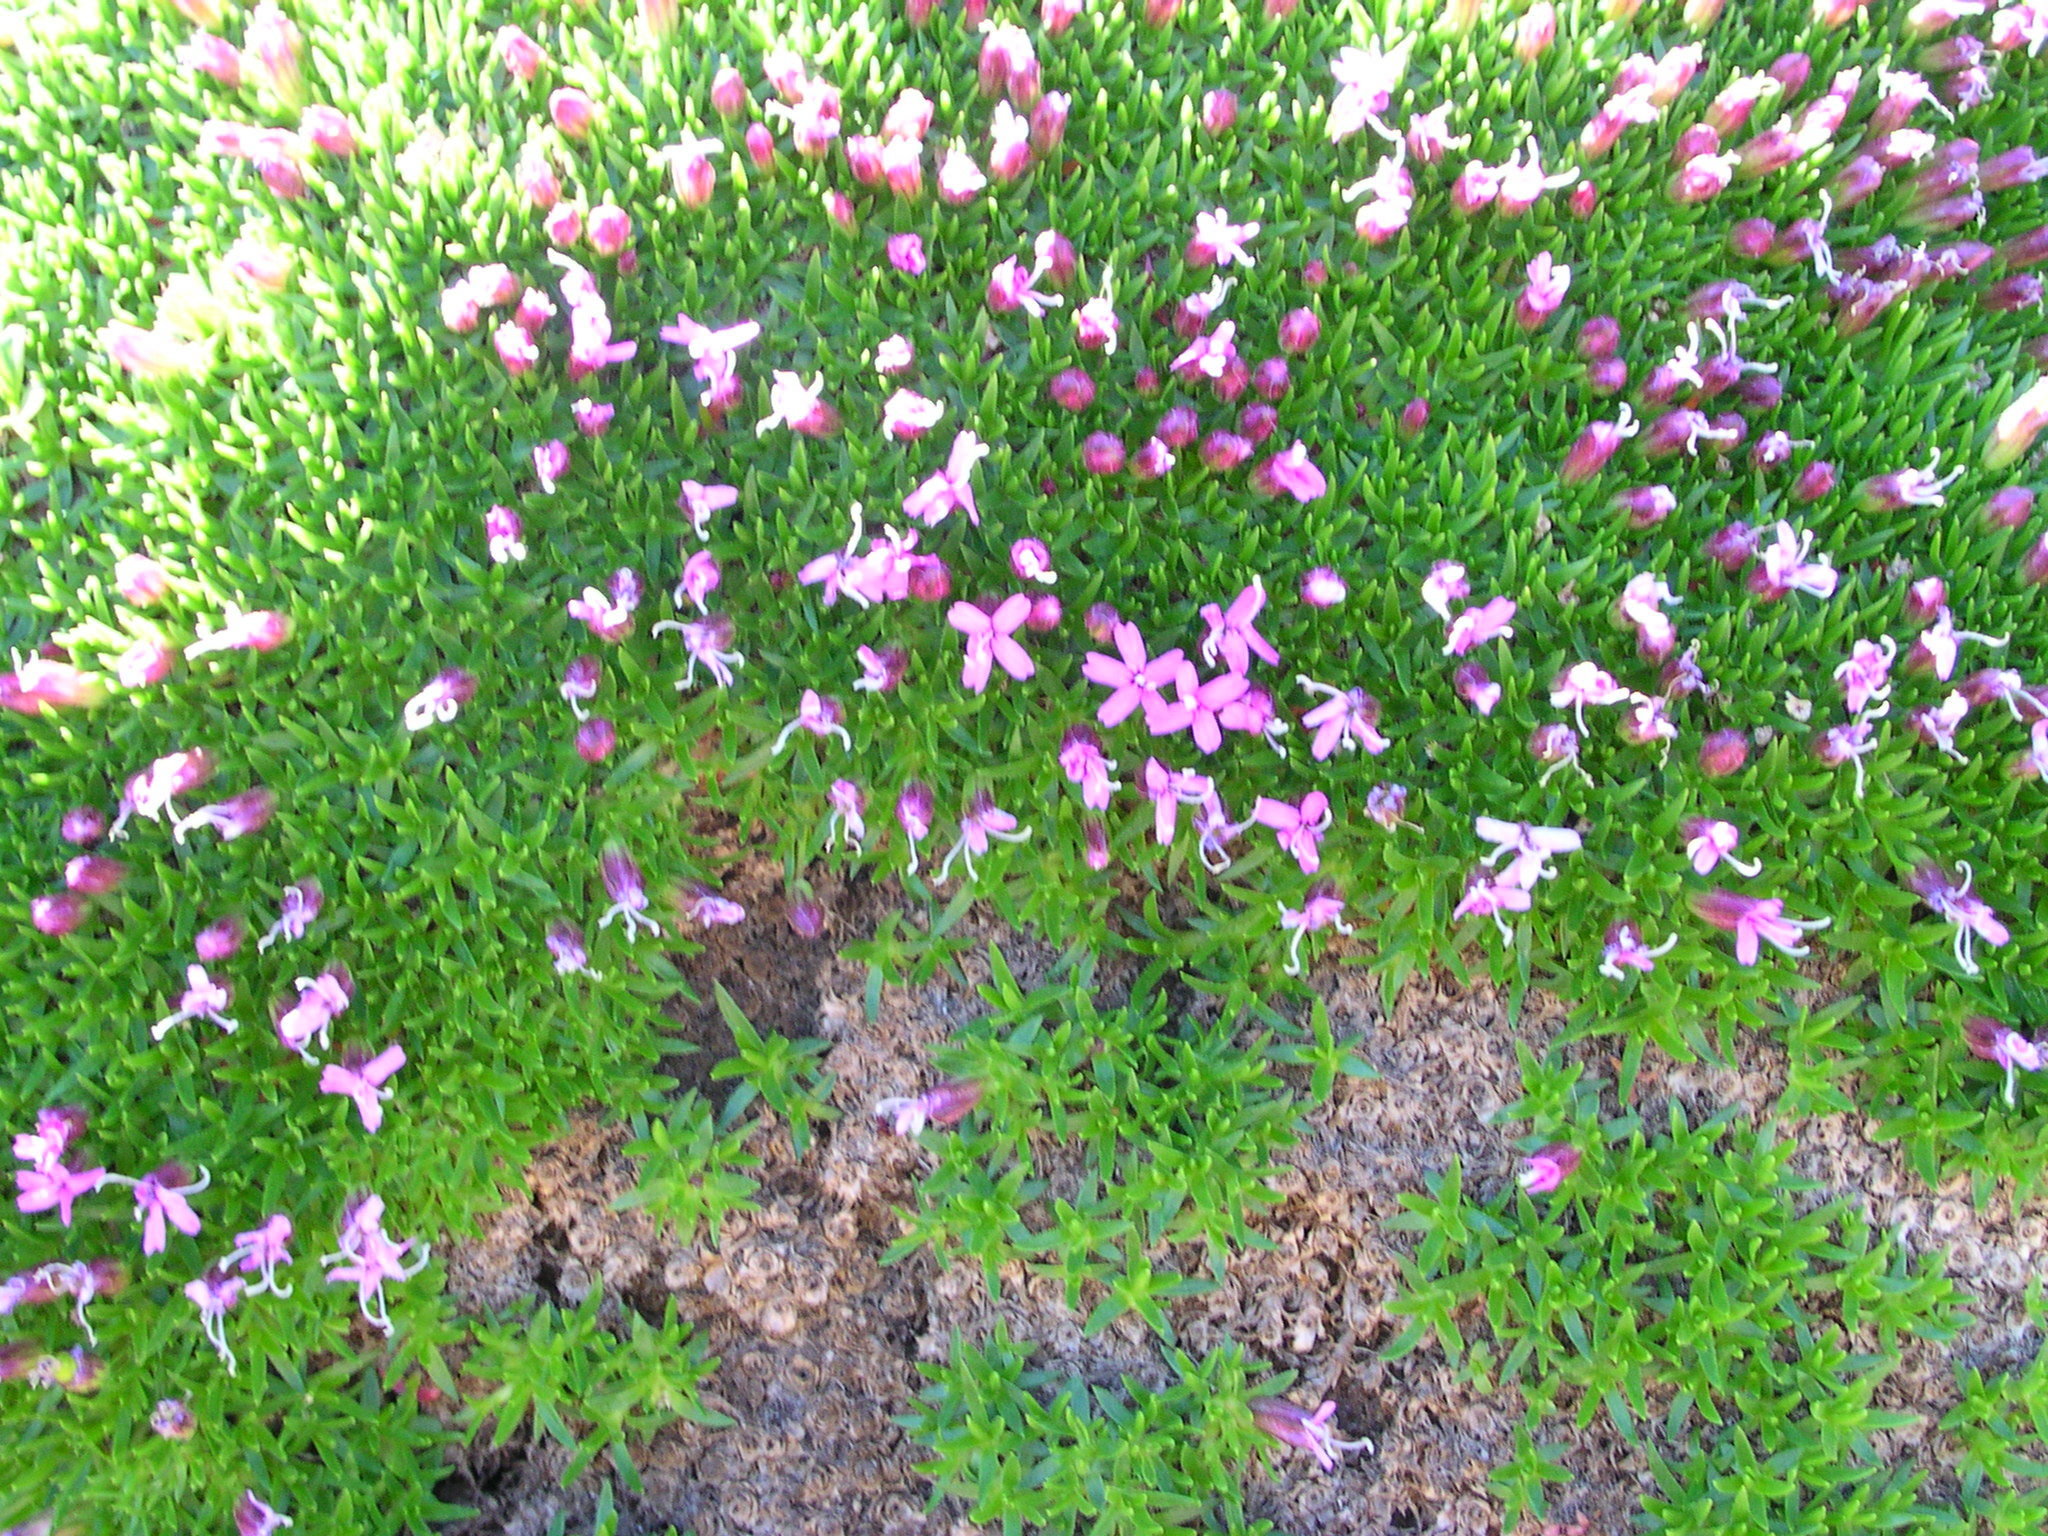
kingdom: Plantae
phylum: Tracheophyta
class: Magnoliopsida
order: Caryophyllales
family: Caryophyllaceae
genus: Silene
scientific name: Silene acaulis
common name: Moss campion
